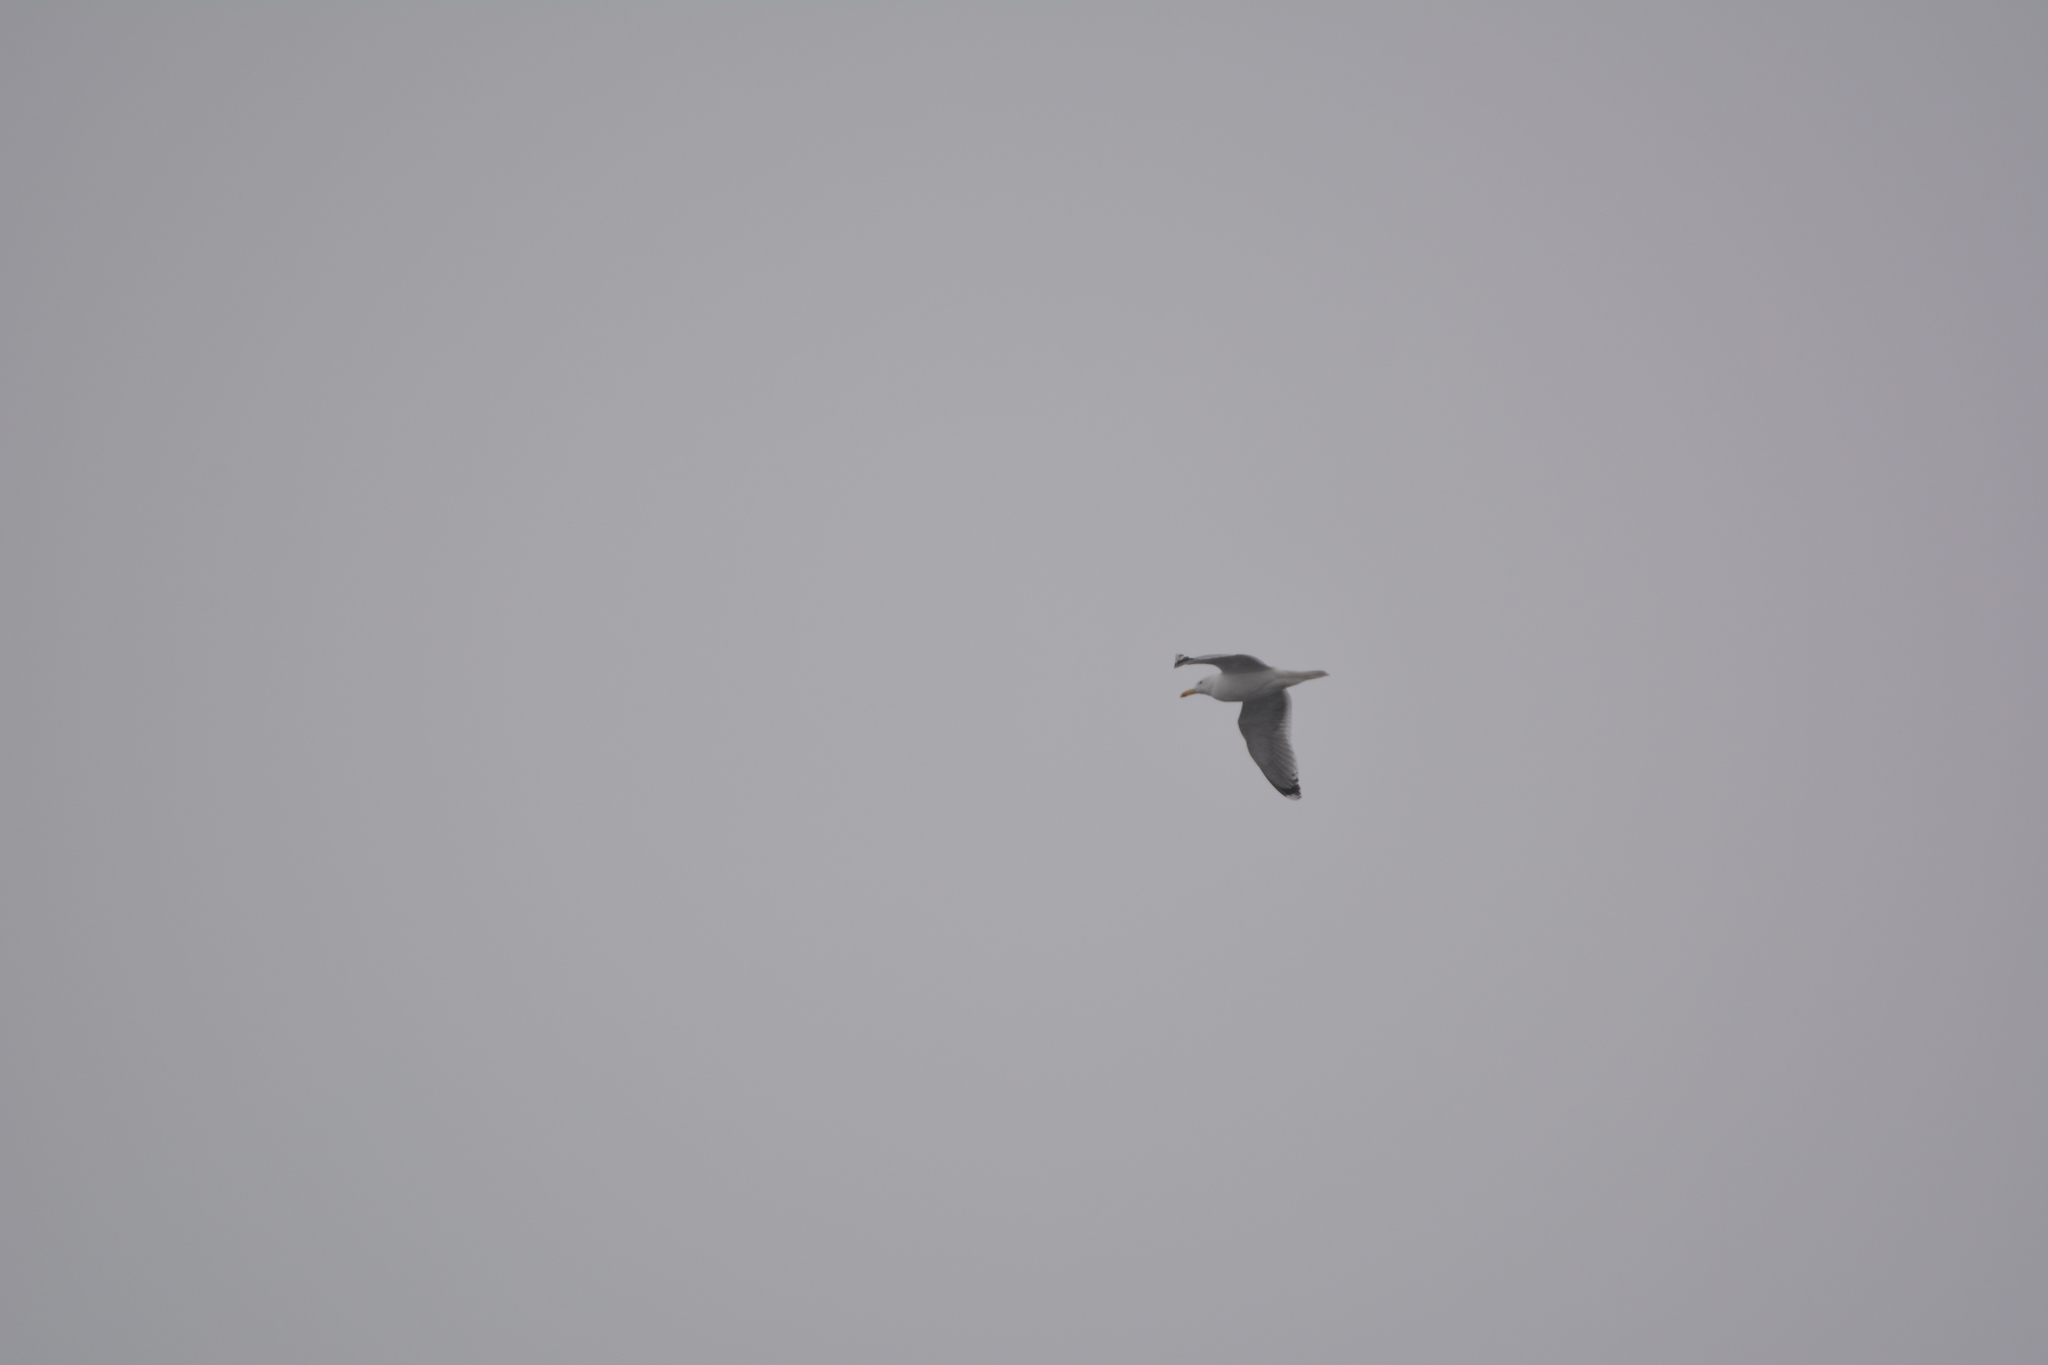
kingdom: Animalia
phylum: Chordata
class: Aves
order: Charadriiformes
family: Laridae
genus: Larus
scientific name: Larus argentatus
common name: Herring gull
